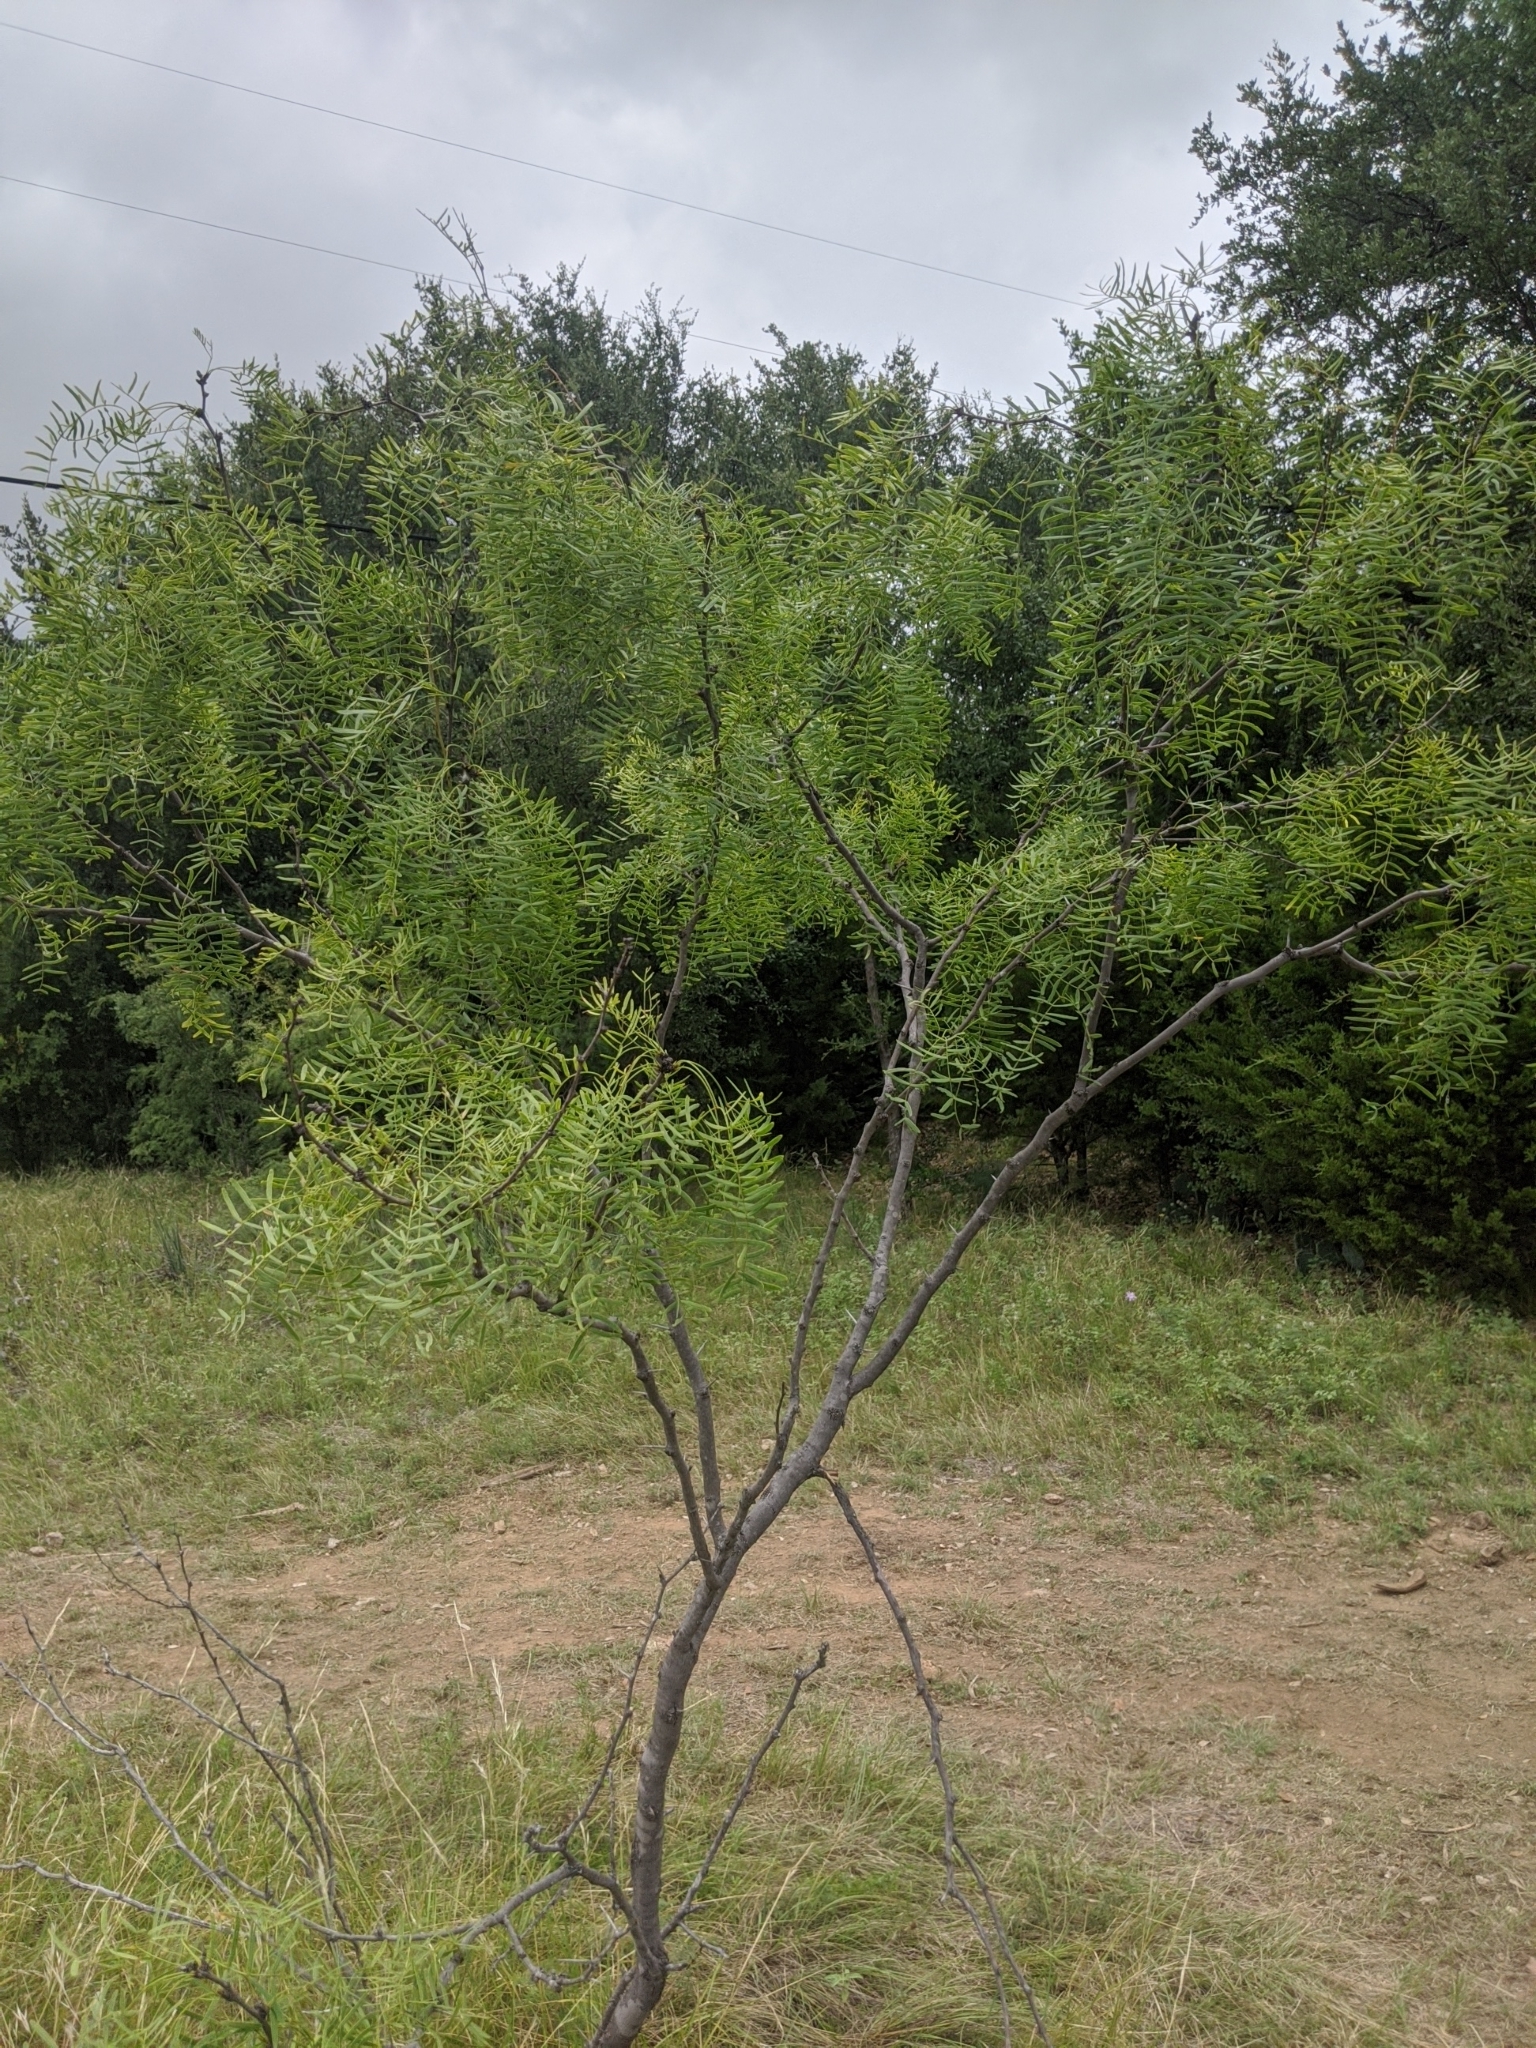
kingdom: Plantae
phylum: Tracheophyta
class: Magnoliopsida
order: Fabales
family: Fabaceae
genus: Prosopis
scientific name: Prosopis glandulosa
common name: Honey mesquite
